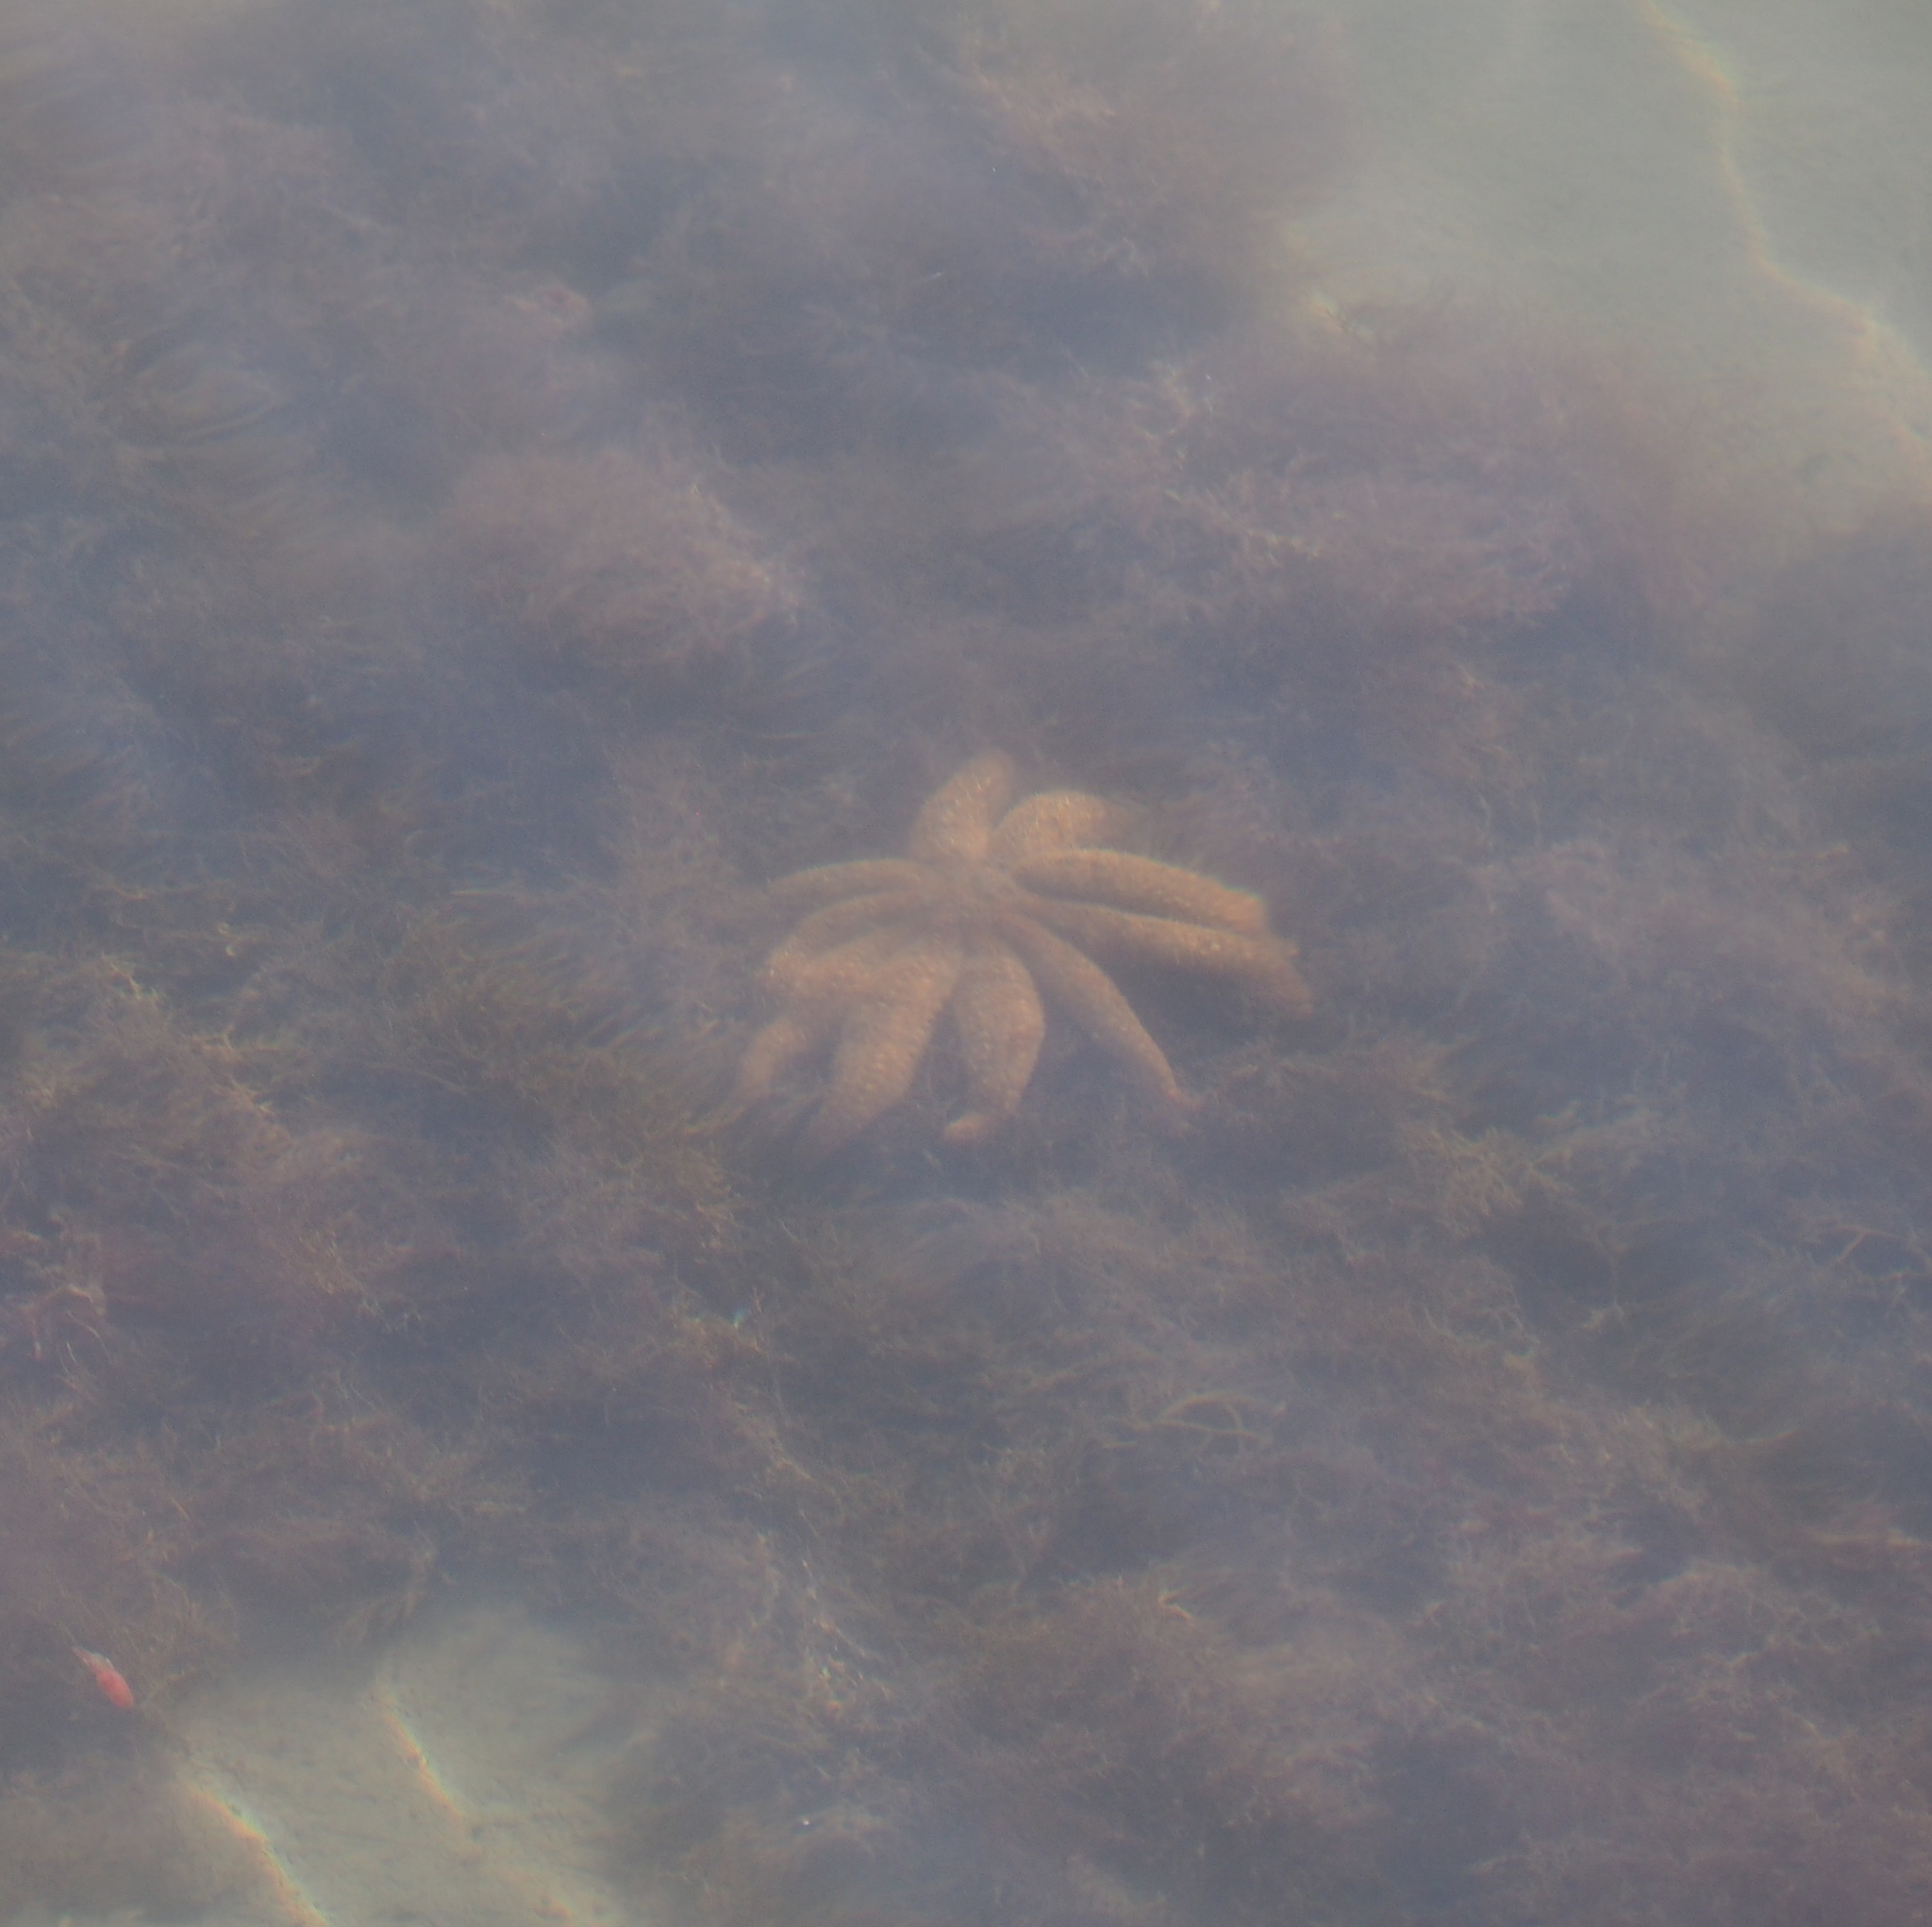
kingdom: Animalia
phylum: Echinodermata
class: Asteroidea
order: Forcipulatida
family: Asteriidae
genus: Coscinasterias
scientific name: Coscinasterias muricata
